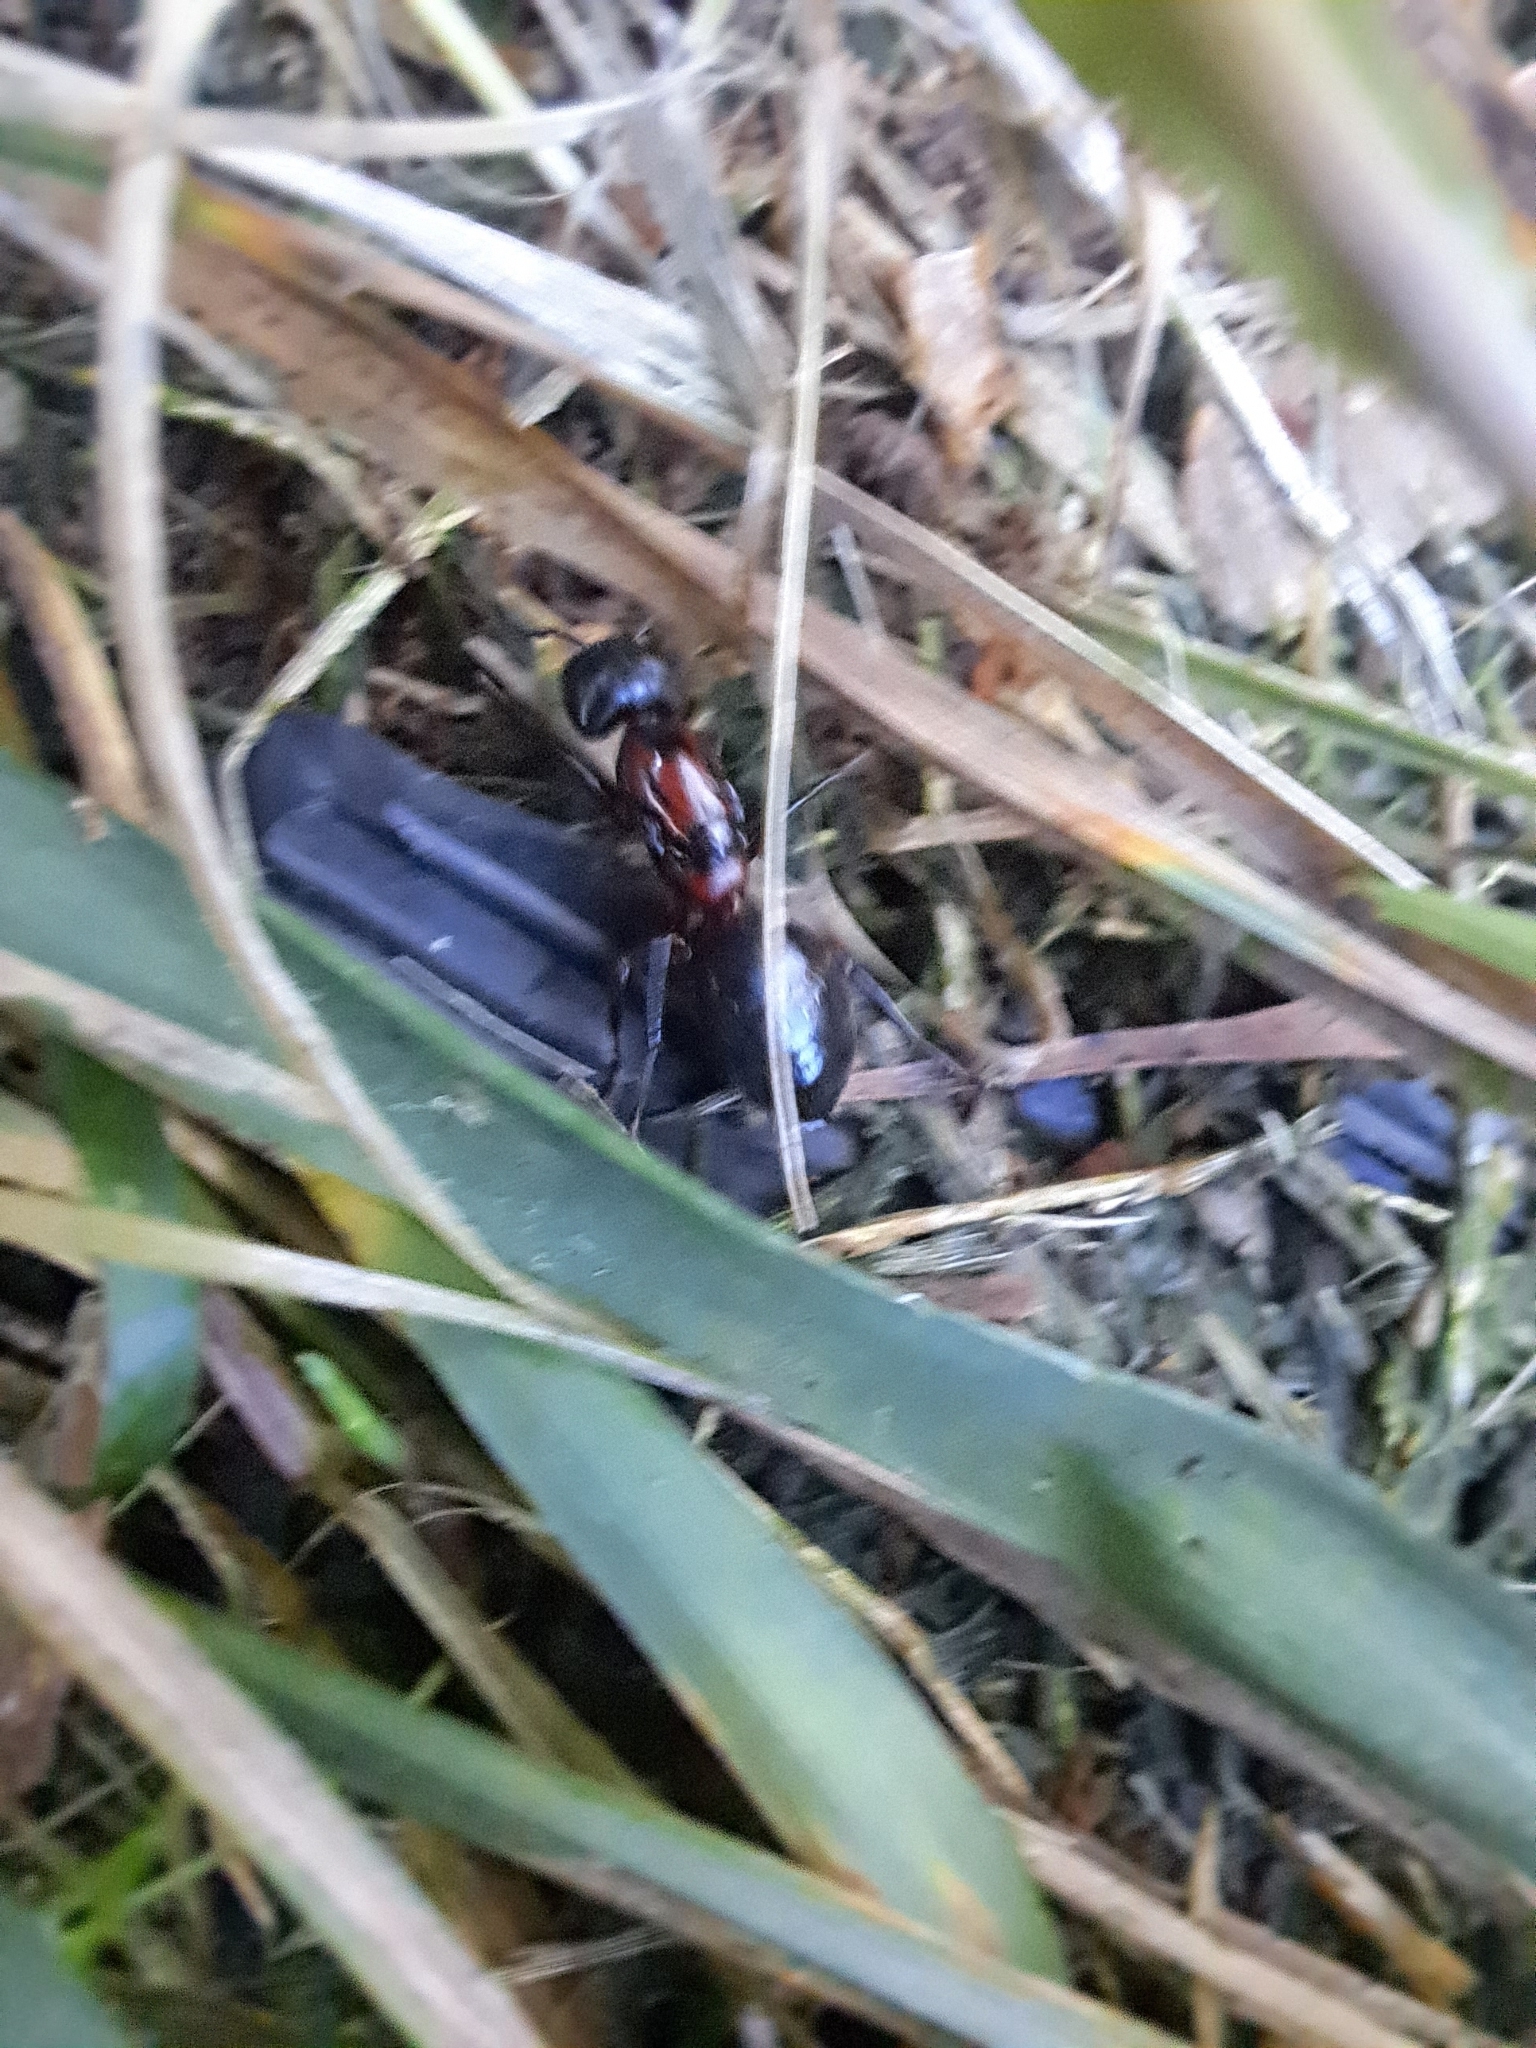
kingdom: Animalia
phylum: Arthropoda
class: Insecta
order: Hymenoptera
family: Formicidae
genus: Camponotus
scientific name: Camponotus novaeboracensis
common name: New york carpenter ant
